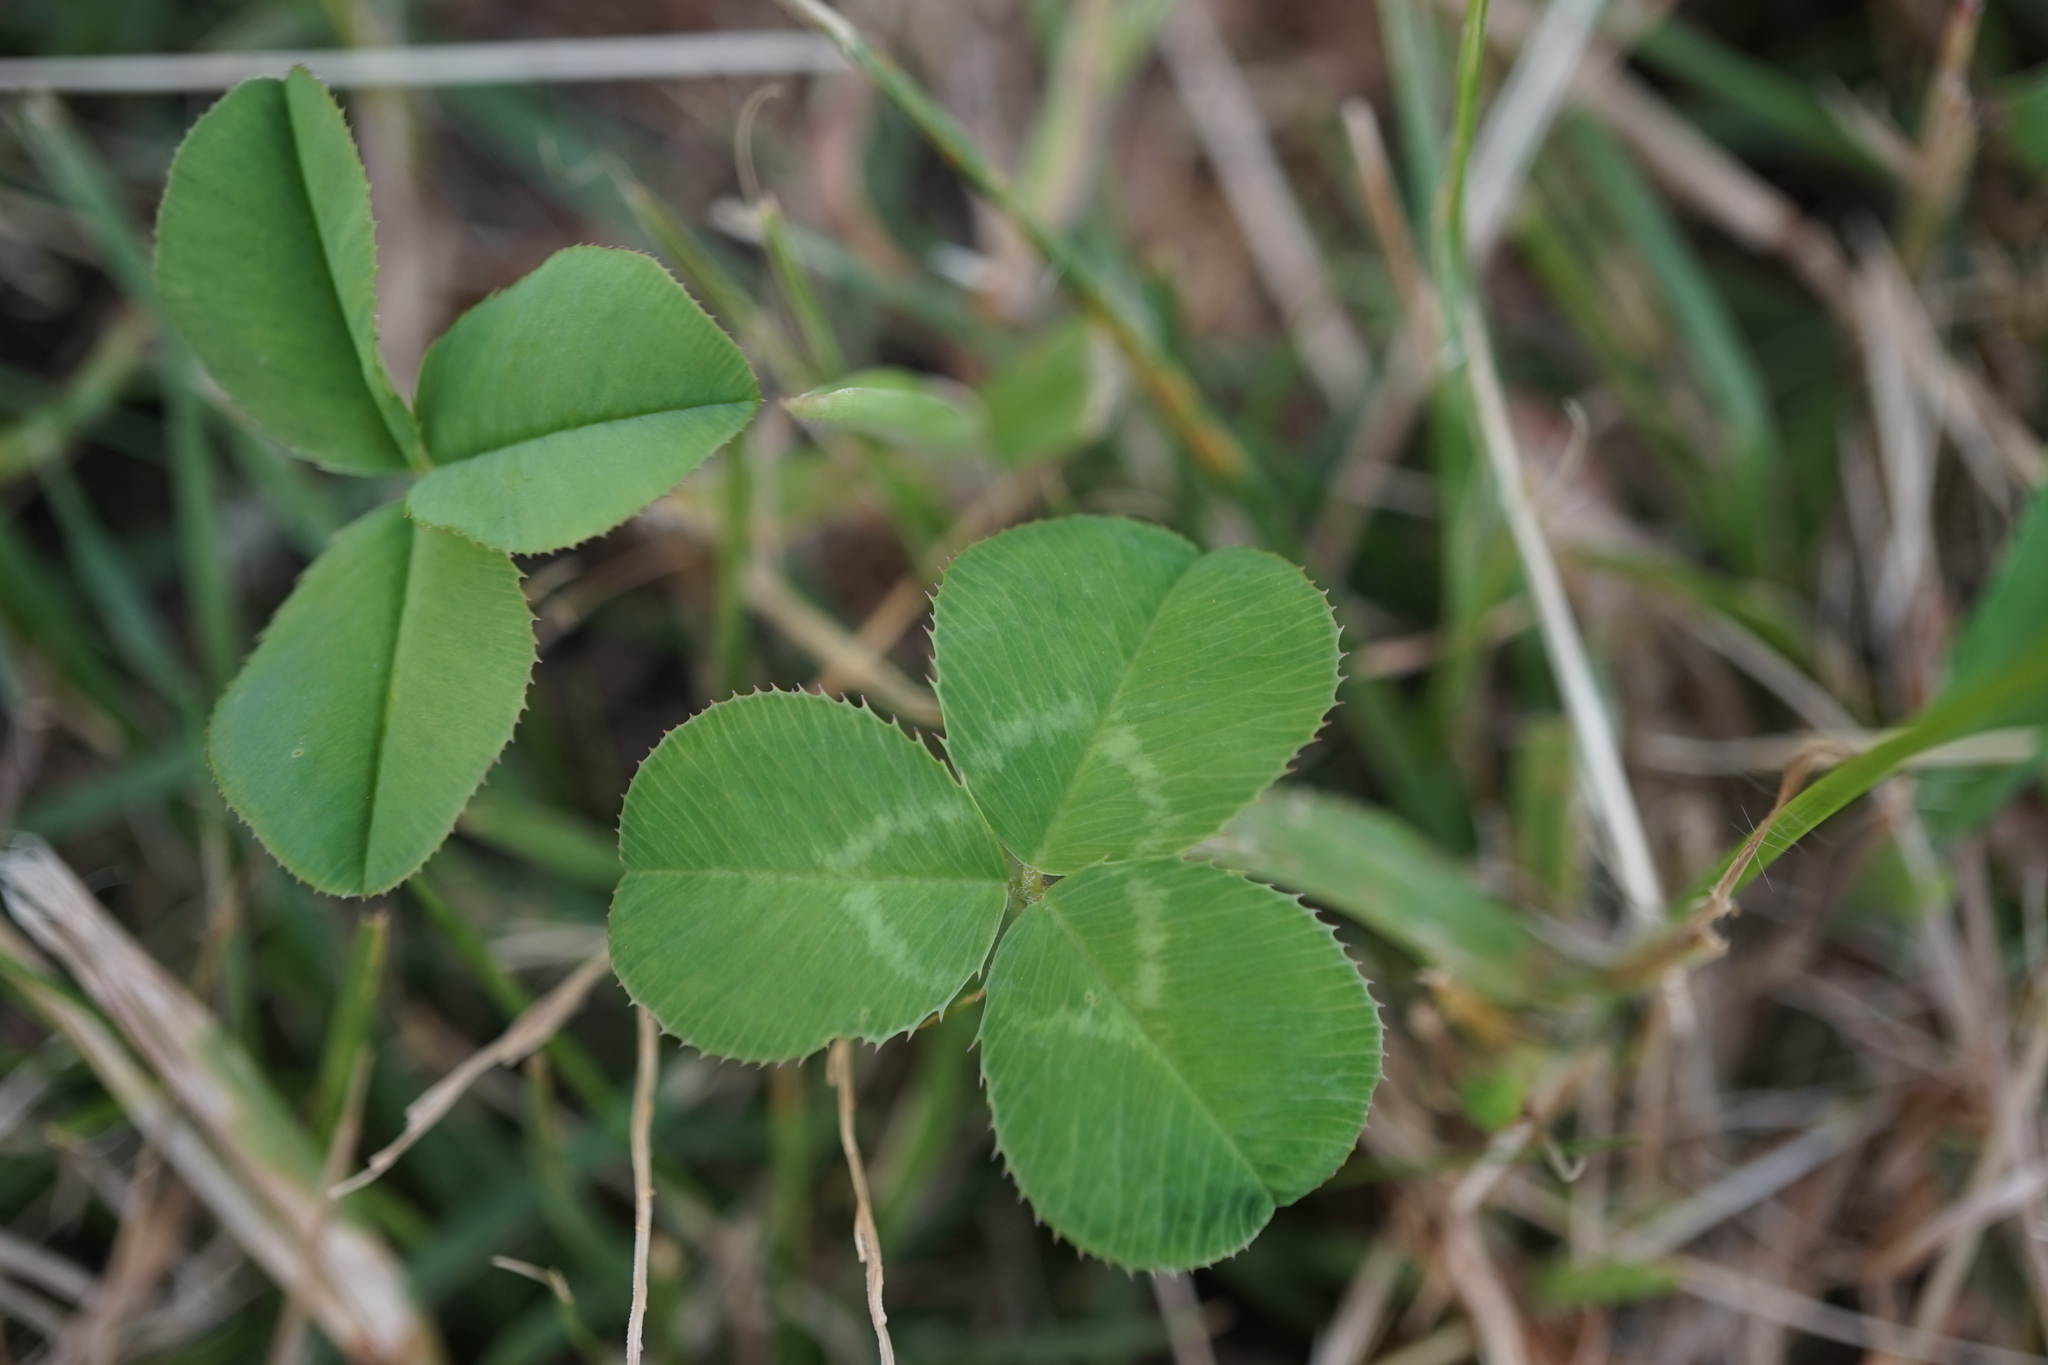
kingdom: Plantae
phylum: Tracheophyta
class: Magnoliopsida
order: Fabales
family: Fabaceae
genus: Trifolium
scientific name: Trifolium repens
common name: White clover
